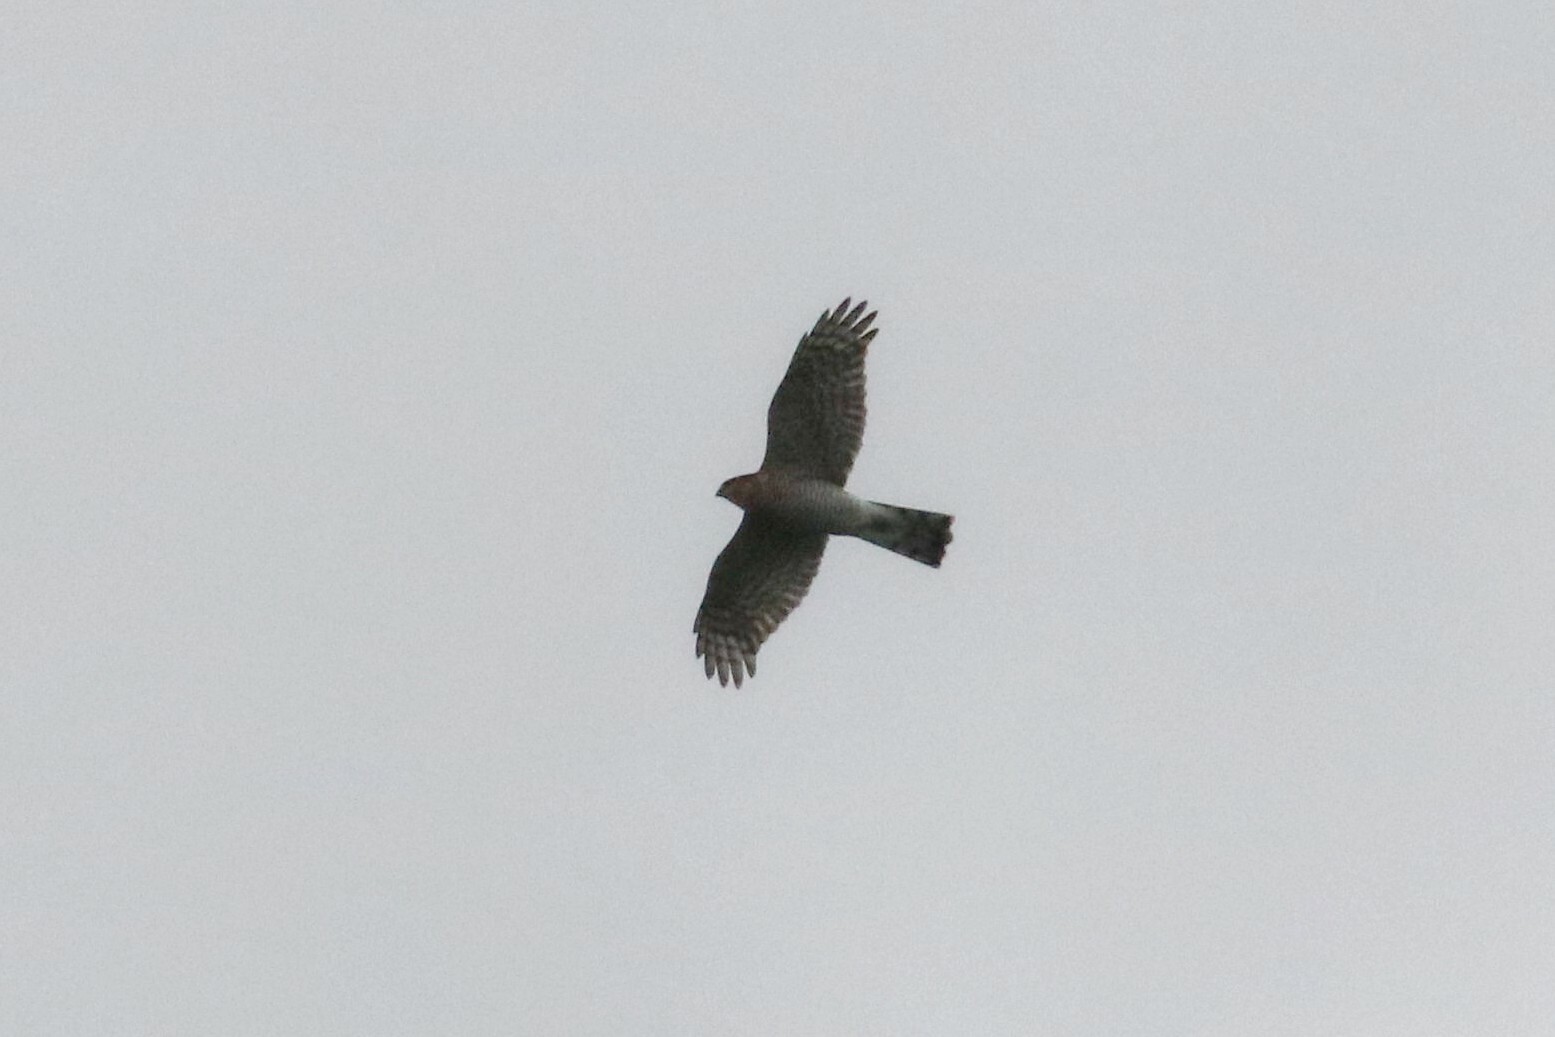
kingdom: Animalia
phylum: Chordata
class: Aves
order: Accipitriformes
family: Accipitridae
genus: Accipiter
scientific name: Accipiter nisus
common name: Eurasian sparrowhawk
